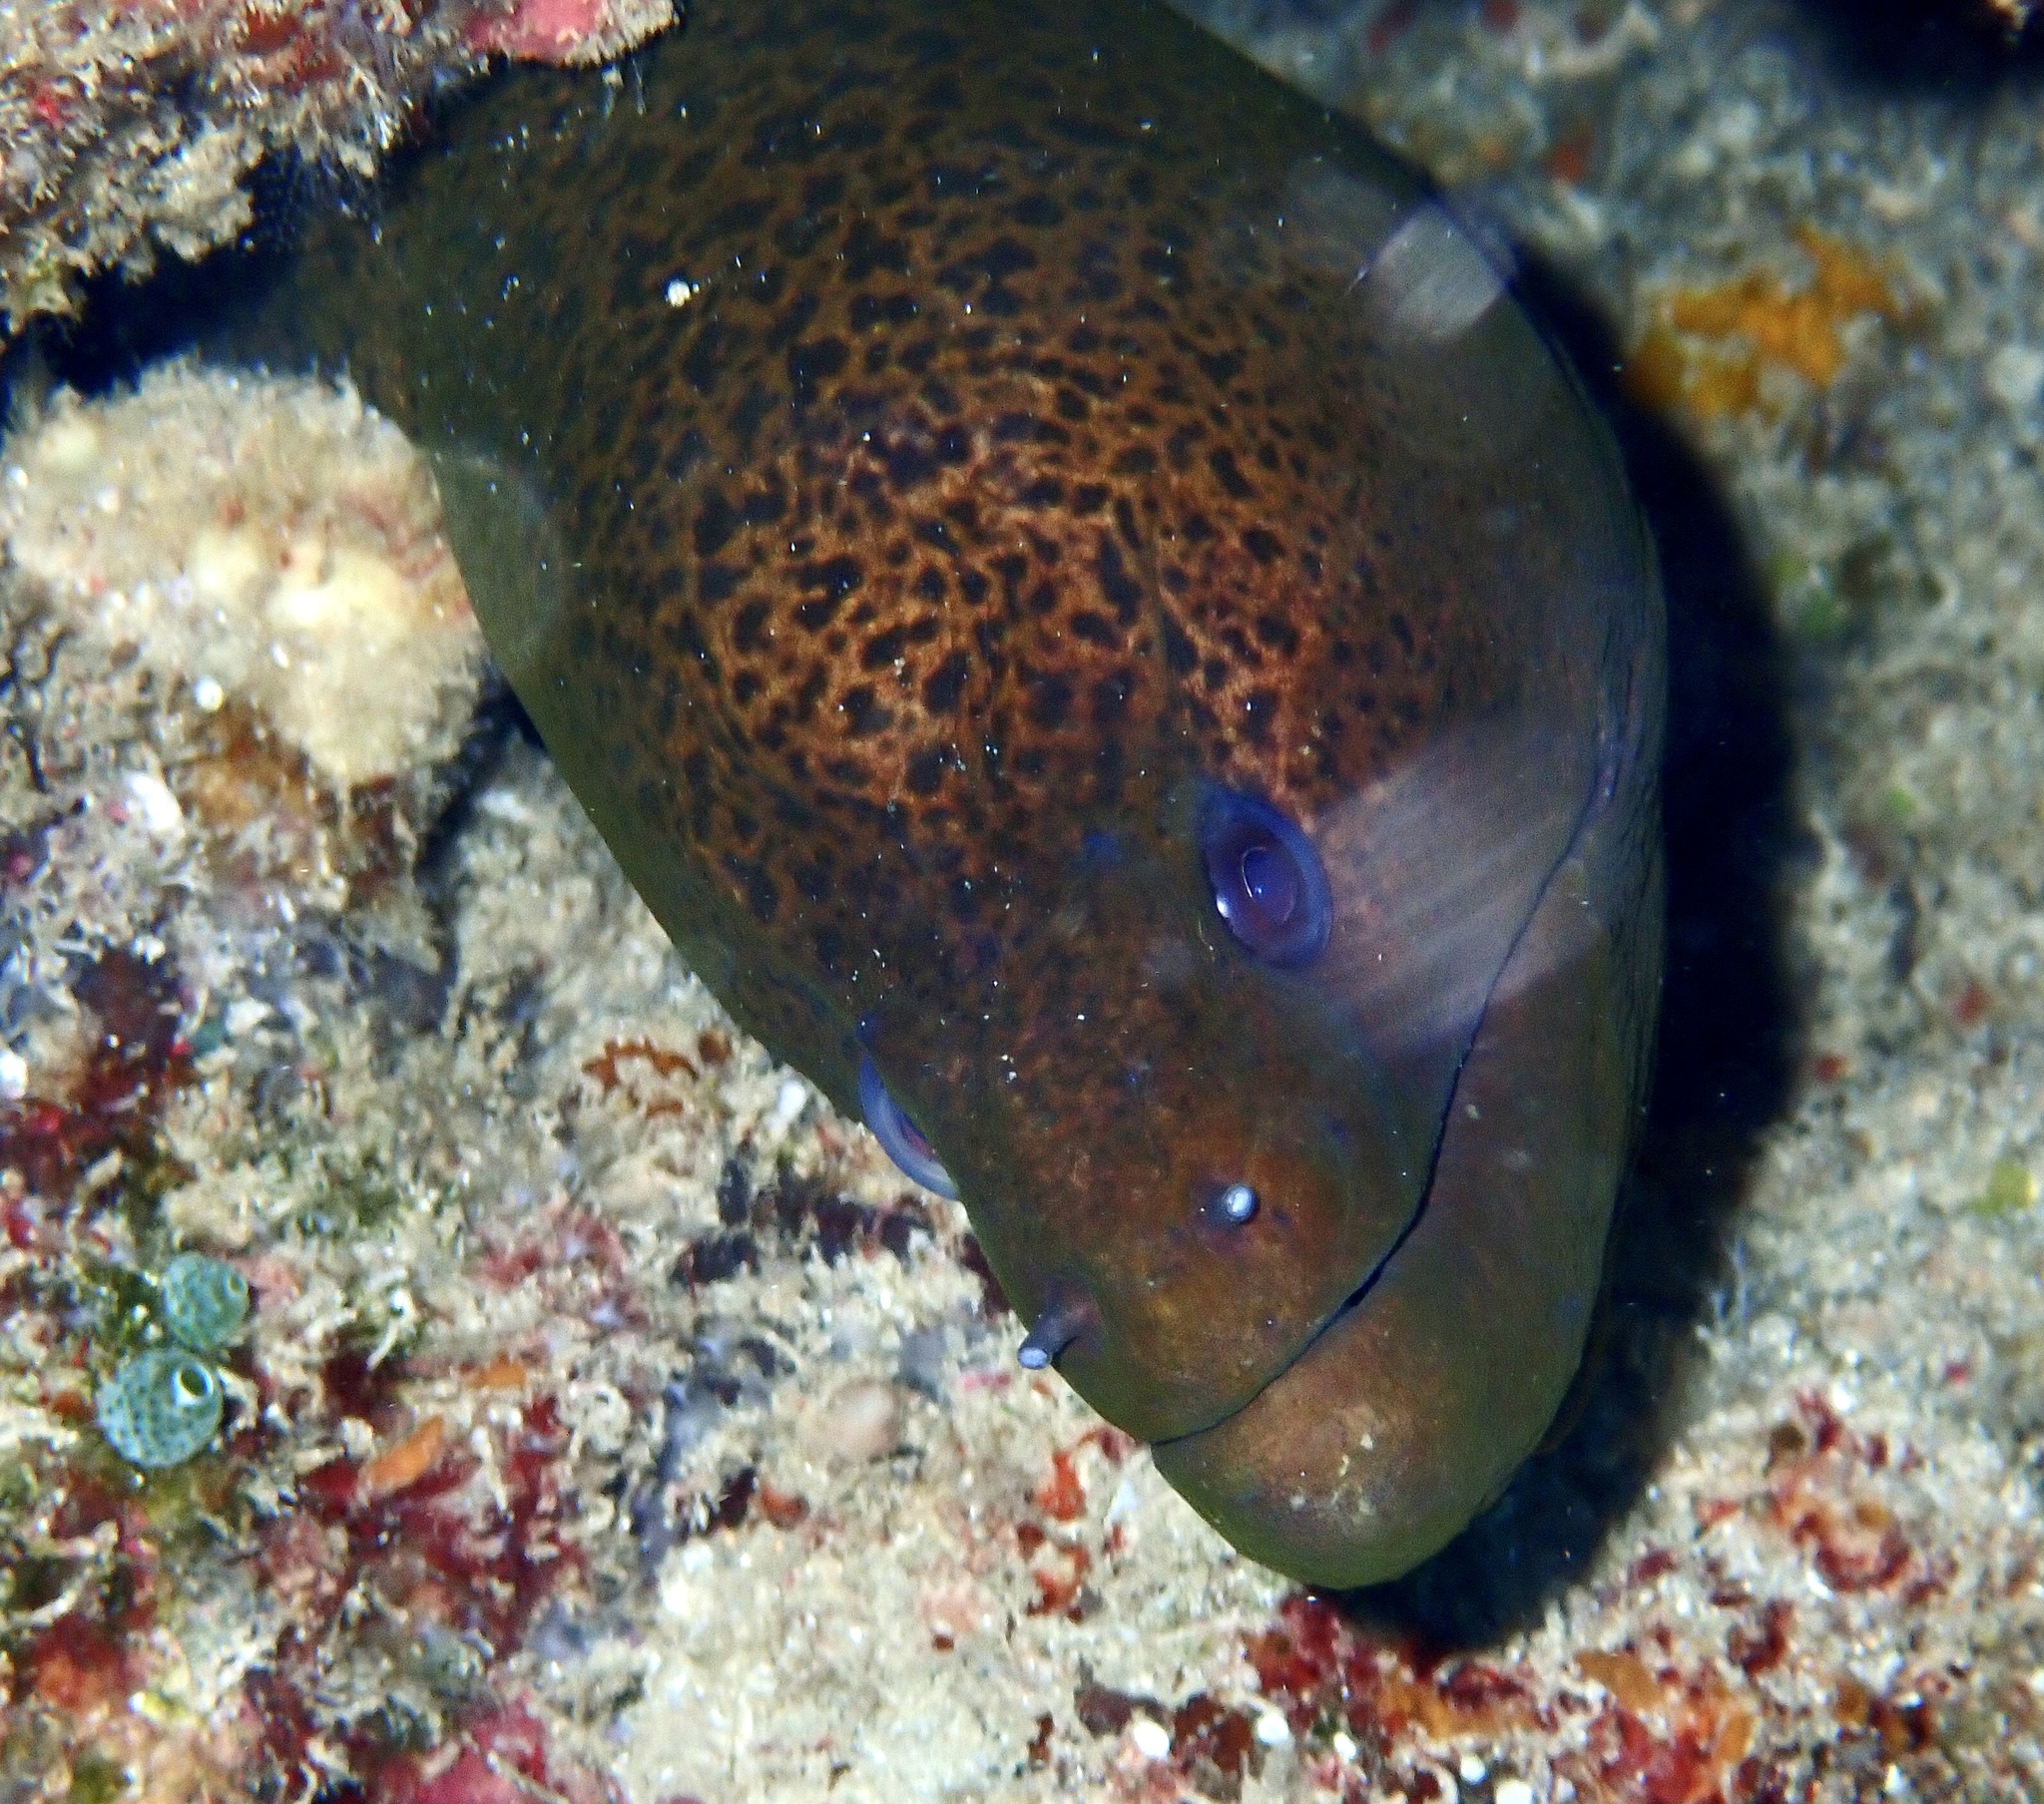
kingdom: Animalia
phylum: Chordata
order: Anguilliformes
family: Muraenidae
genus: Gymnothorax
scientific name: Gymnothorax javanicus
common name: Giant moray
